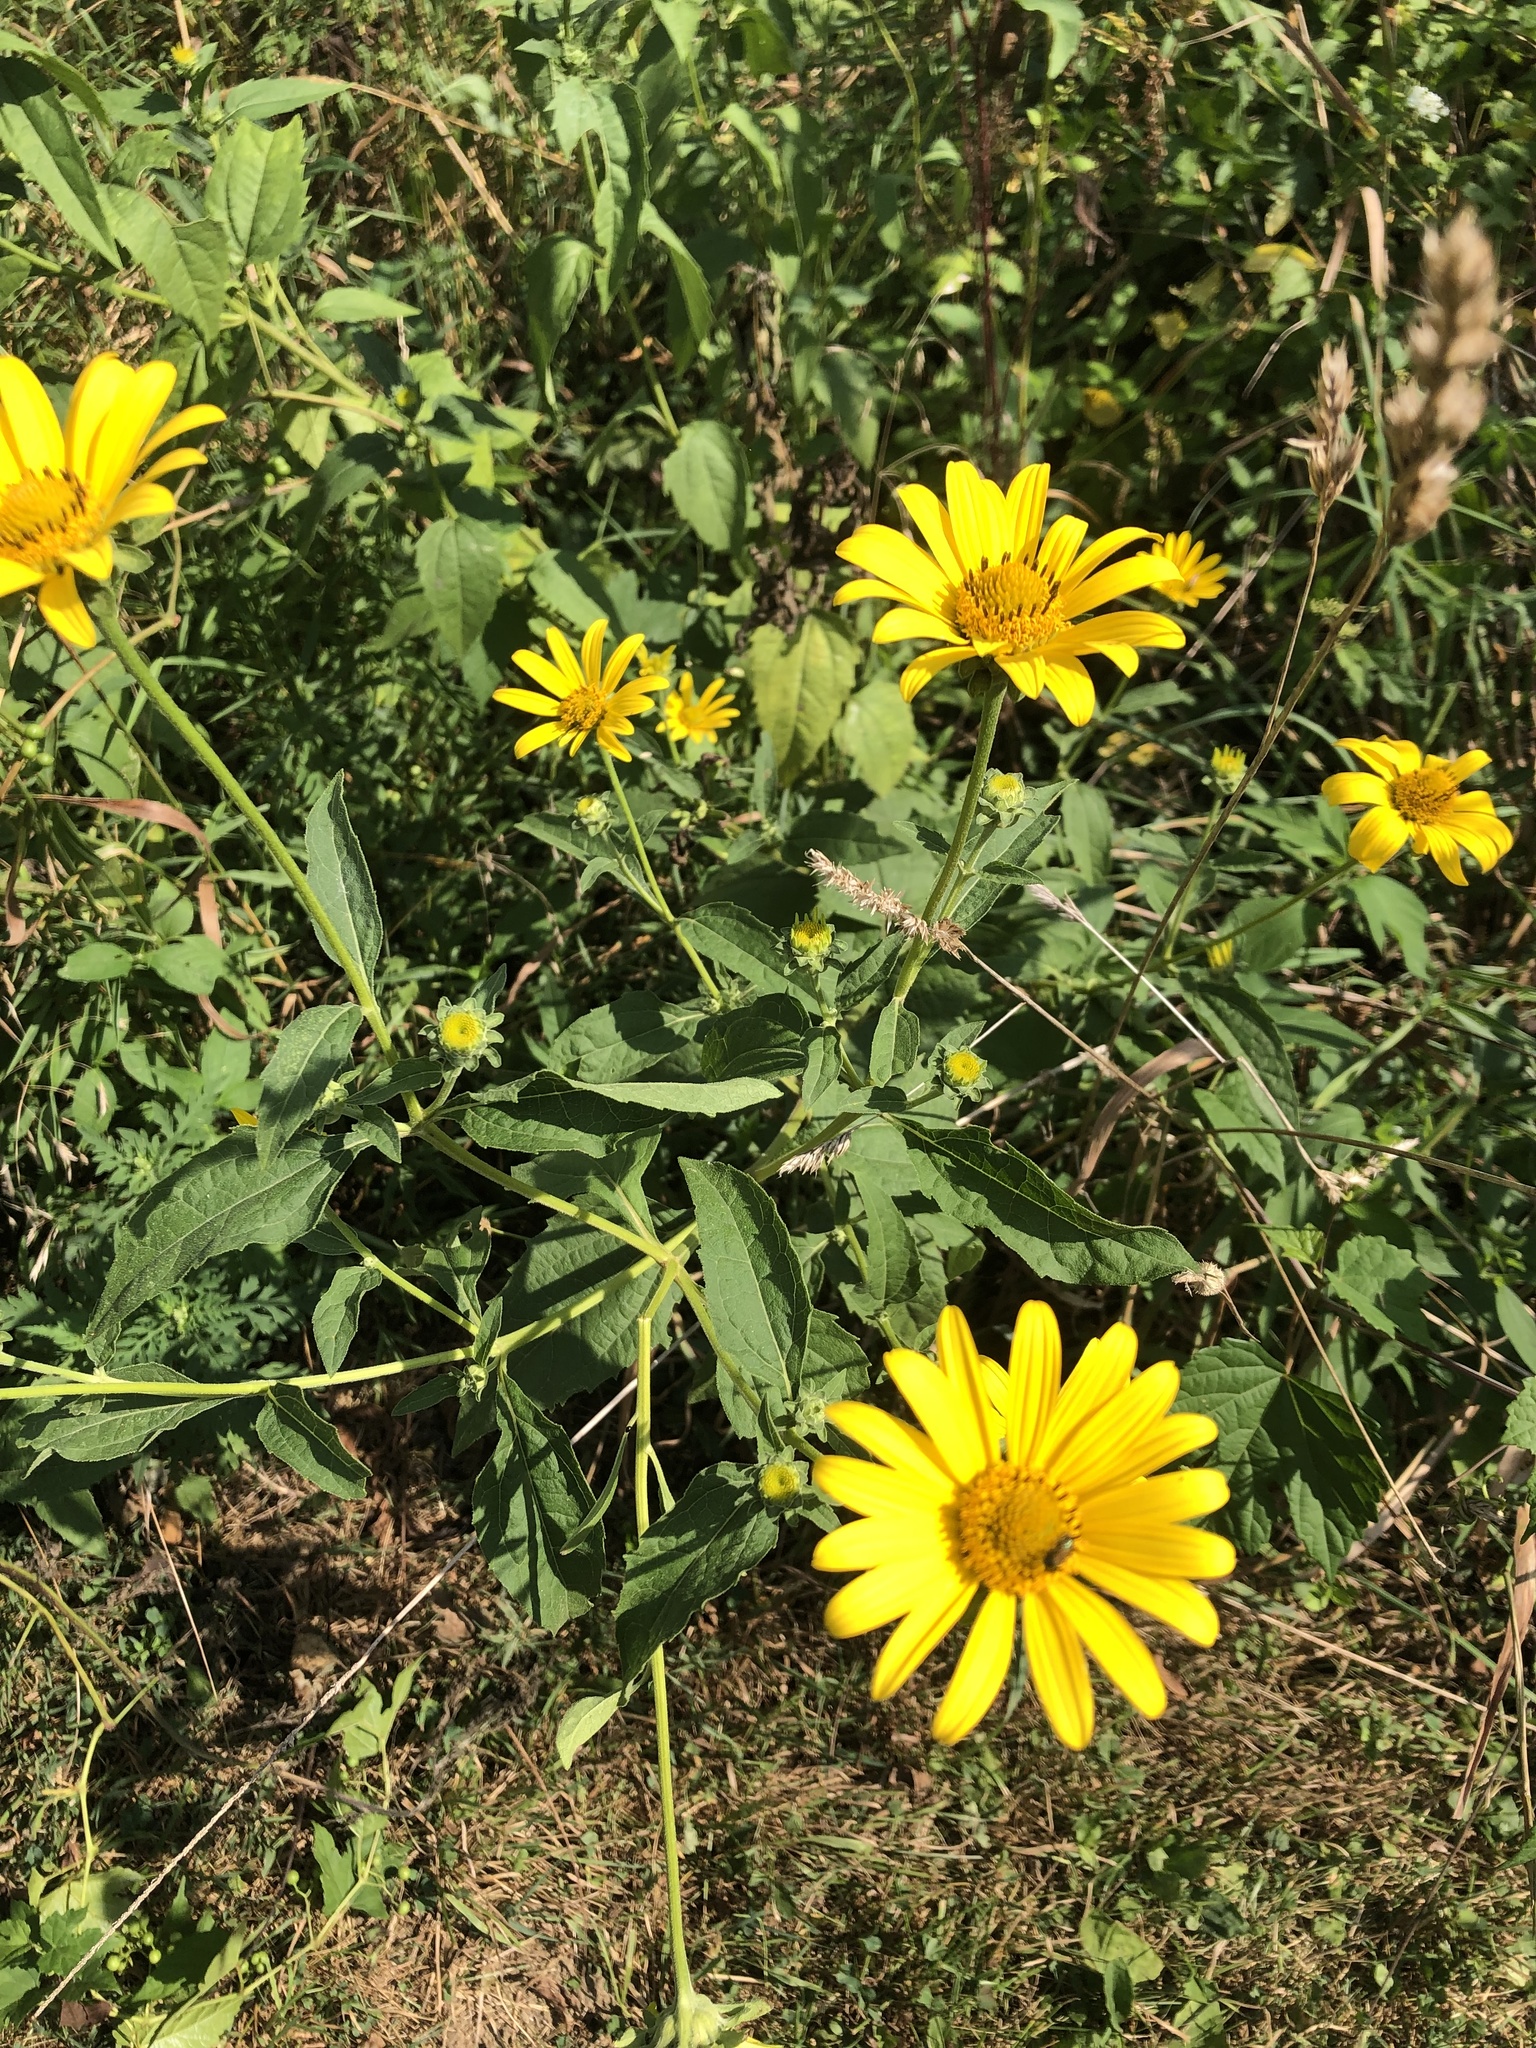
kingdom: Plantae
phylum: Tracheophyta
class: Magnoliopsida
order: Asterales
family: Asteraceae
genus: Heliopsis
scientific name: Heliopsis helianthoides
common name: False sunflower
